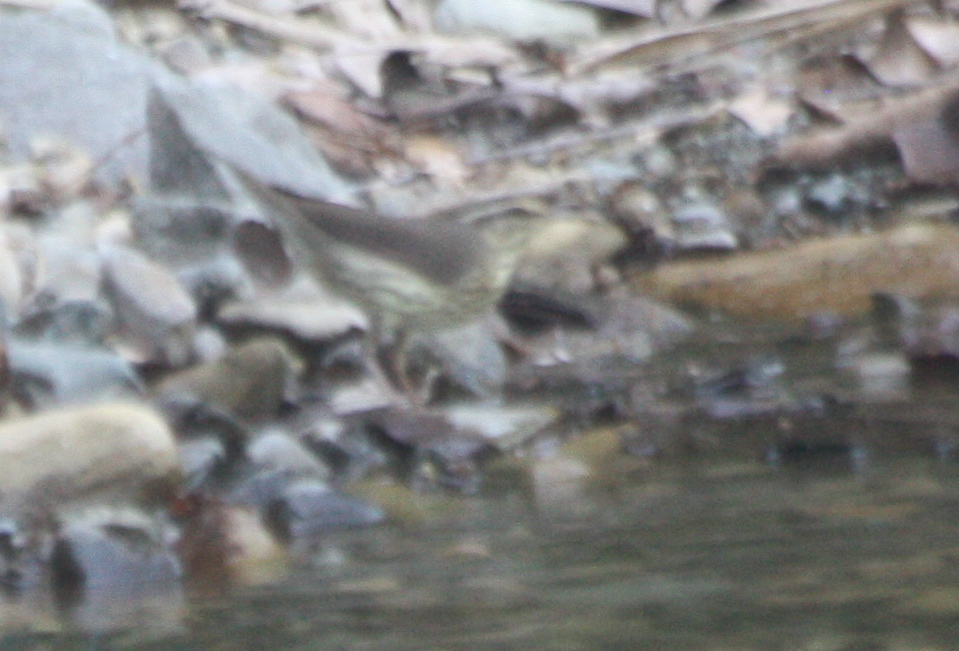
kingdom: Animalia
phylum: Chordata
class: Aves
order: Passeriformes
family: Parulidae
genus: Parkesia
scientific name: Parkesia noveboracensis
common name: Northern waterthrush
